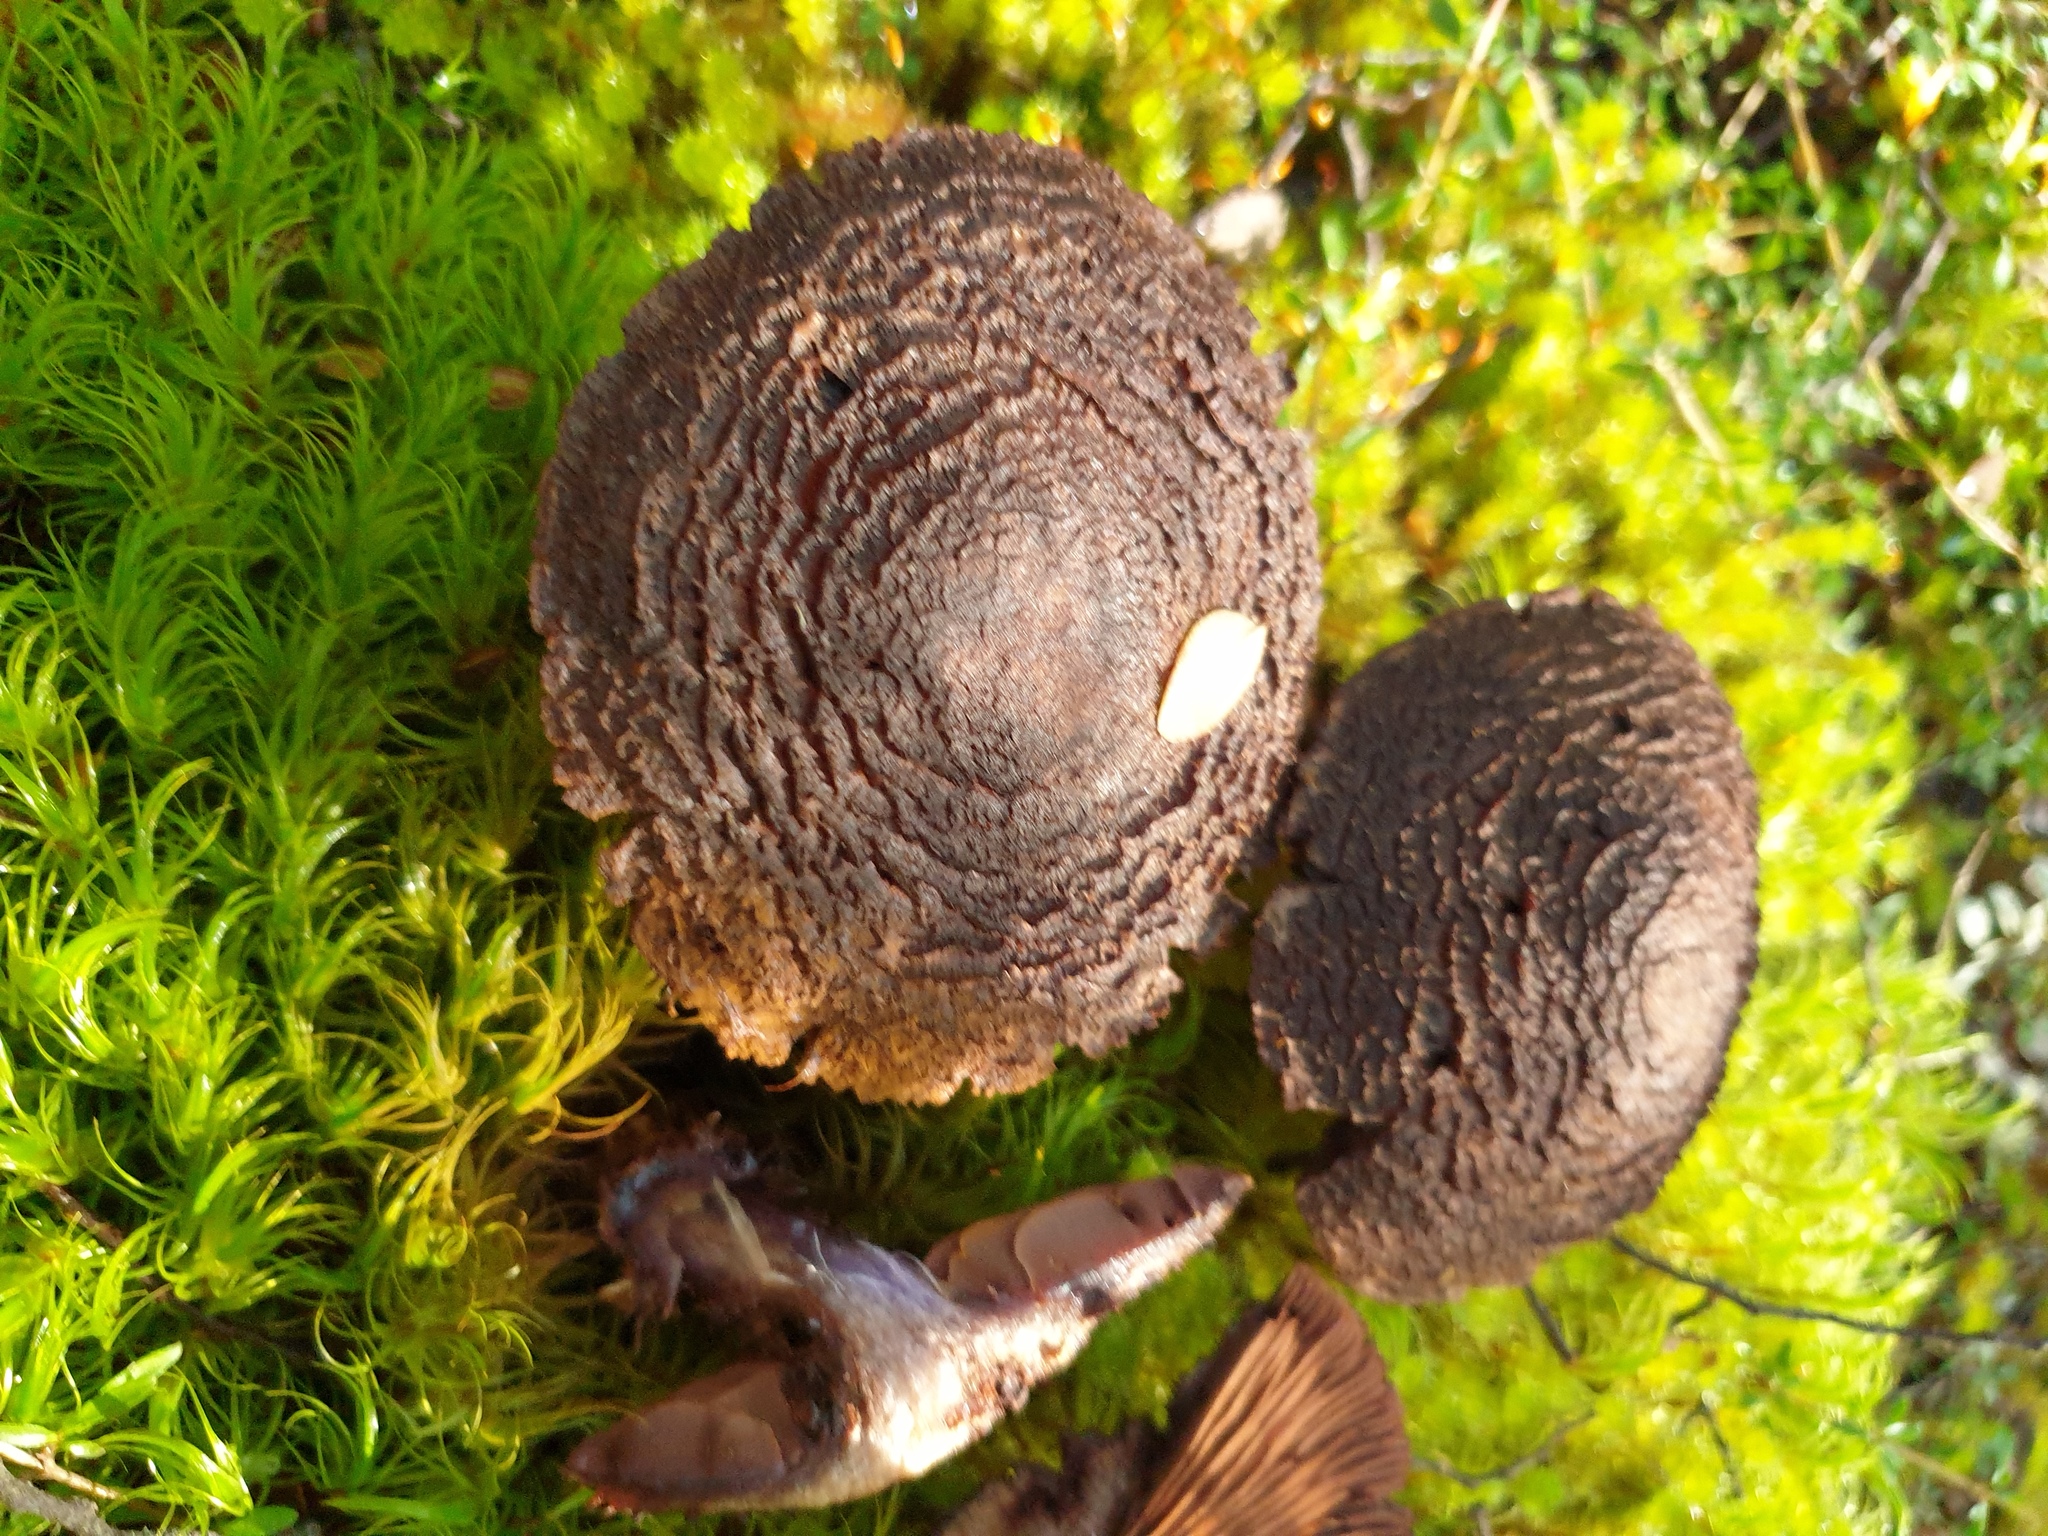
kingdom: Fungi
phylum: Basidiomycota
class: Agaricomycetes
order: Agaricales
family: Cortinariaceae
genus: Cortinarius
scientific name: Cortinarius ursus
